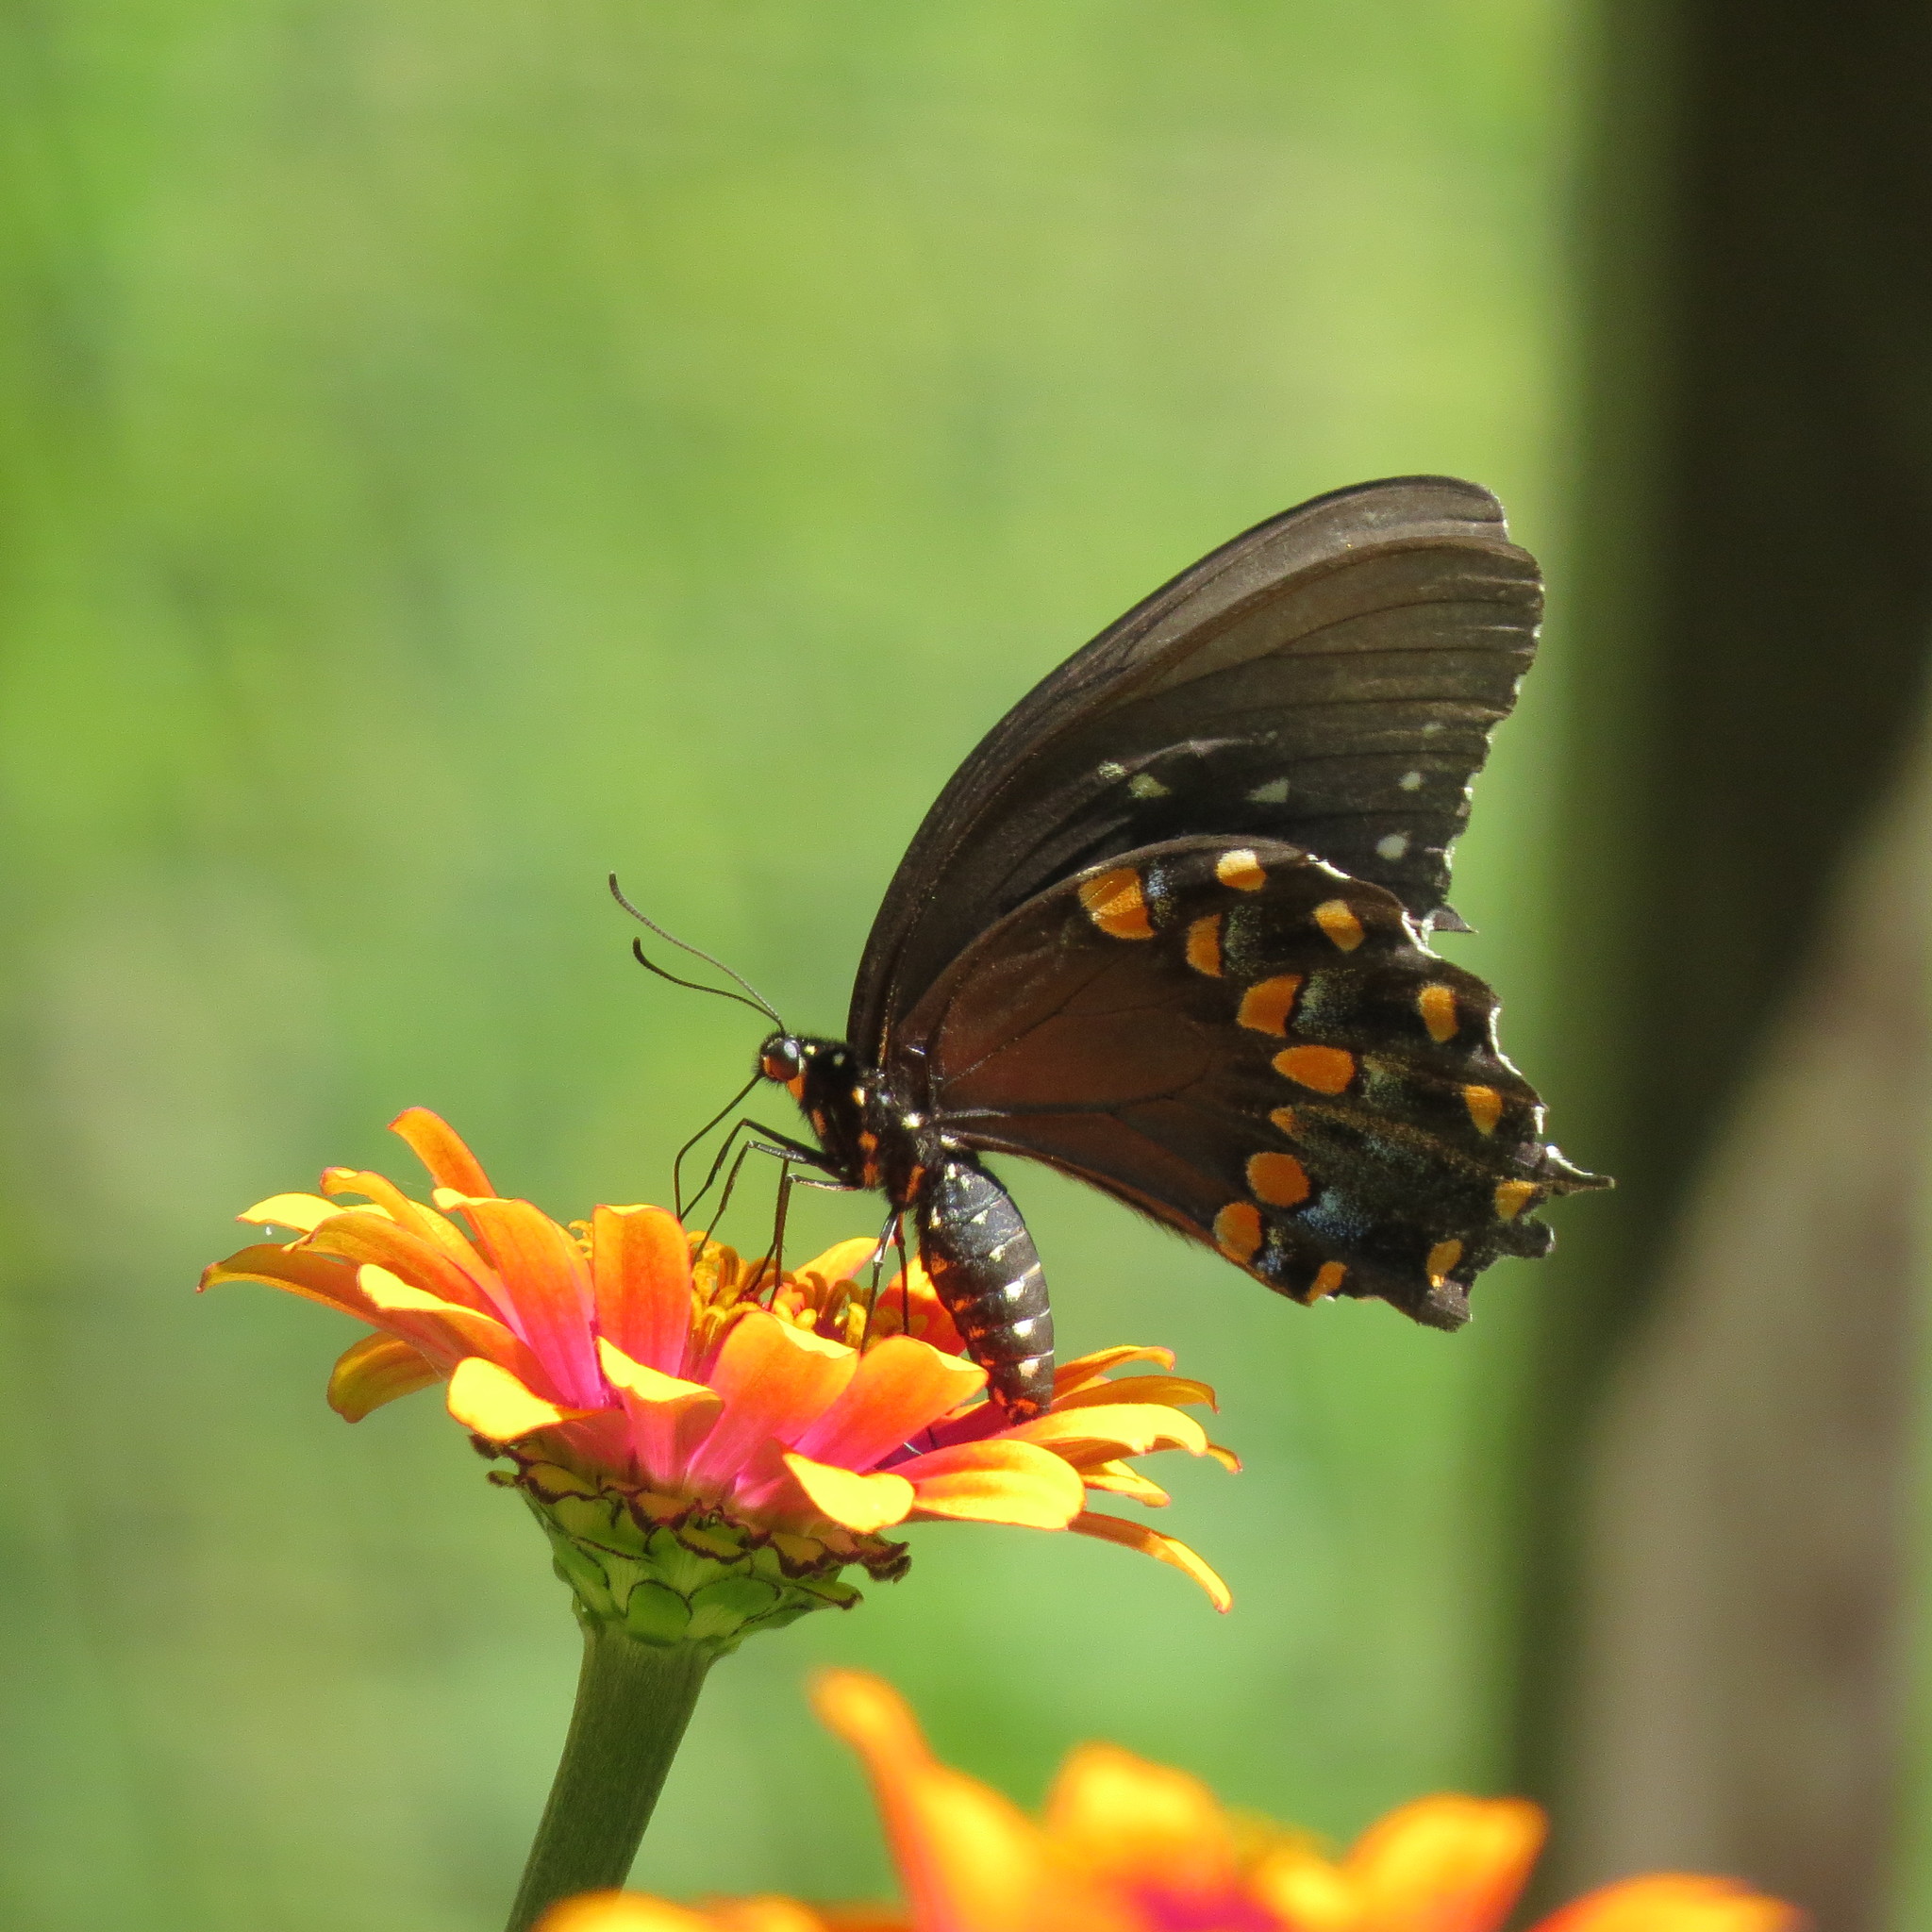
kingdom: Animalia
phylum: Arthropoda
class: Insecta
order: Lepidoptera
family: Papilionidae
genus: Papilio
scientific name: Papilio troilus
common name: Spicebush swallowtail
